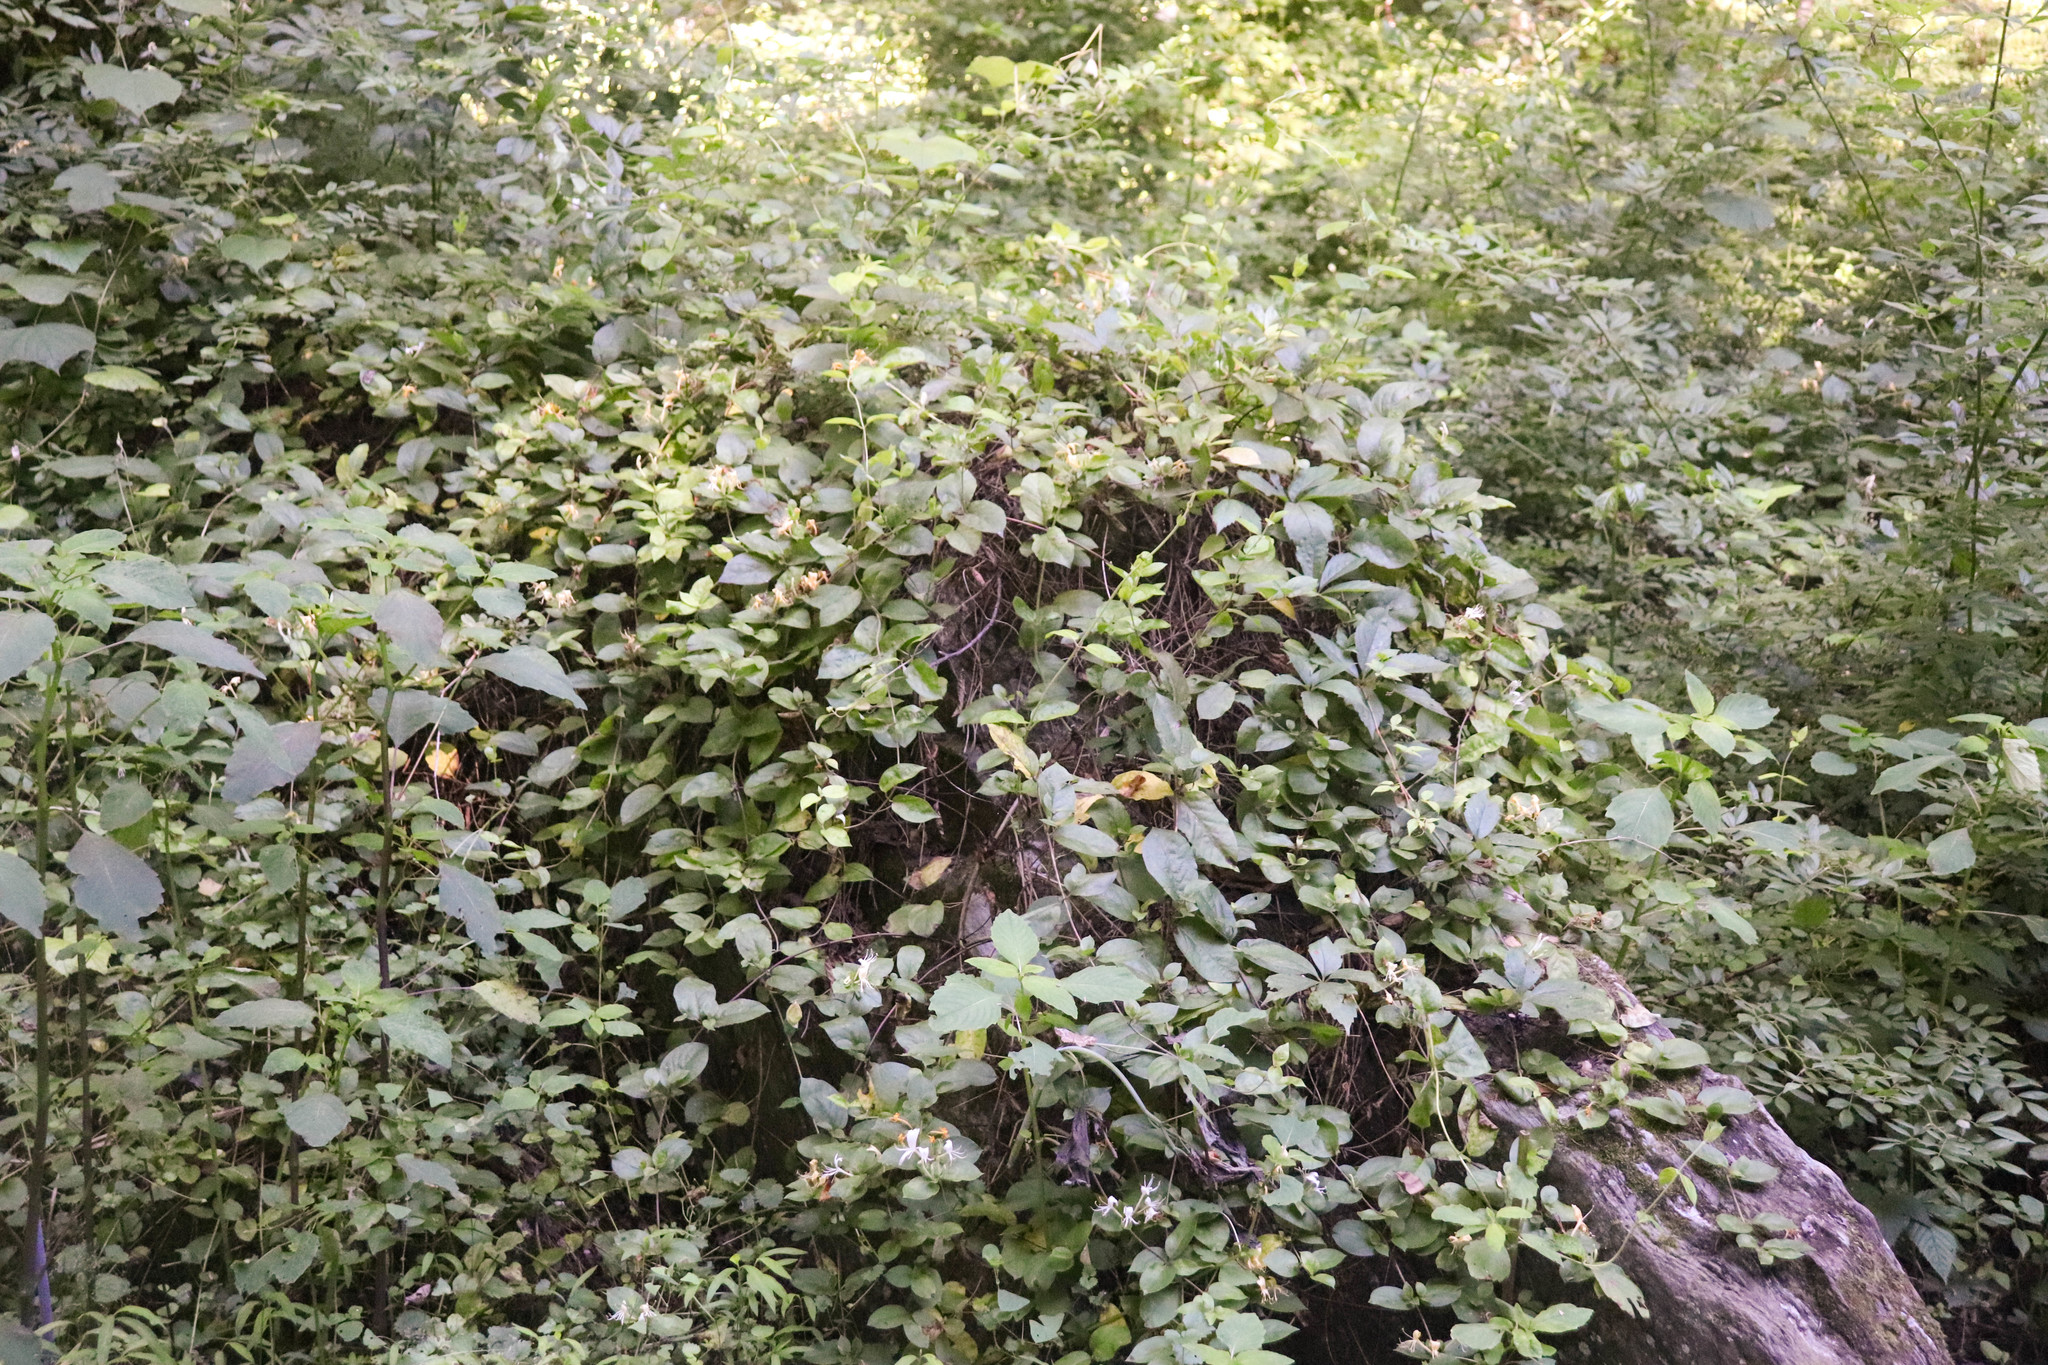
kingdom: Plantae
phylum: Tracheophyta
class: Magnoliopsida
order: Dipsacales
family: Caprifoliaceae
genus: Lonicera
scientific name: Lonicera japonica
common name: Japanese honeysuckle
